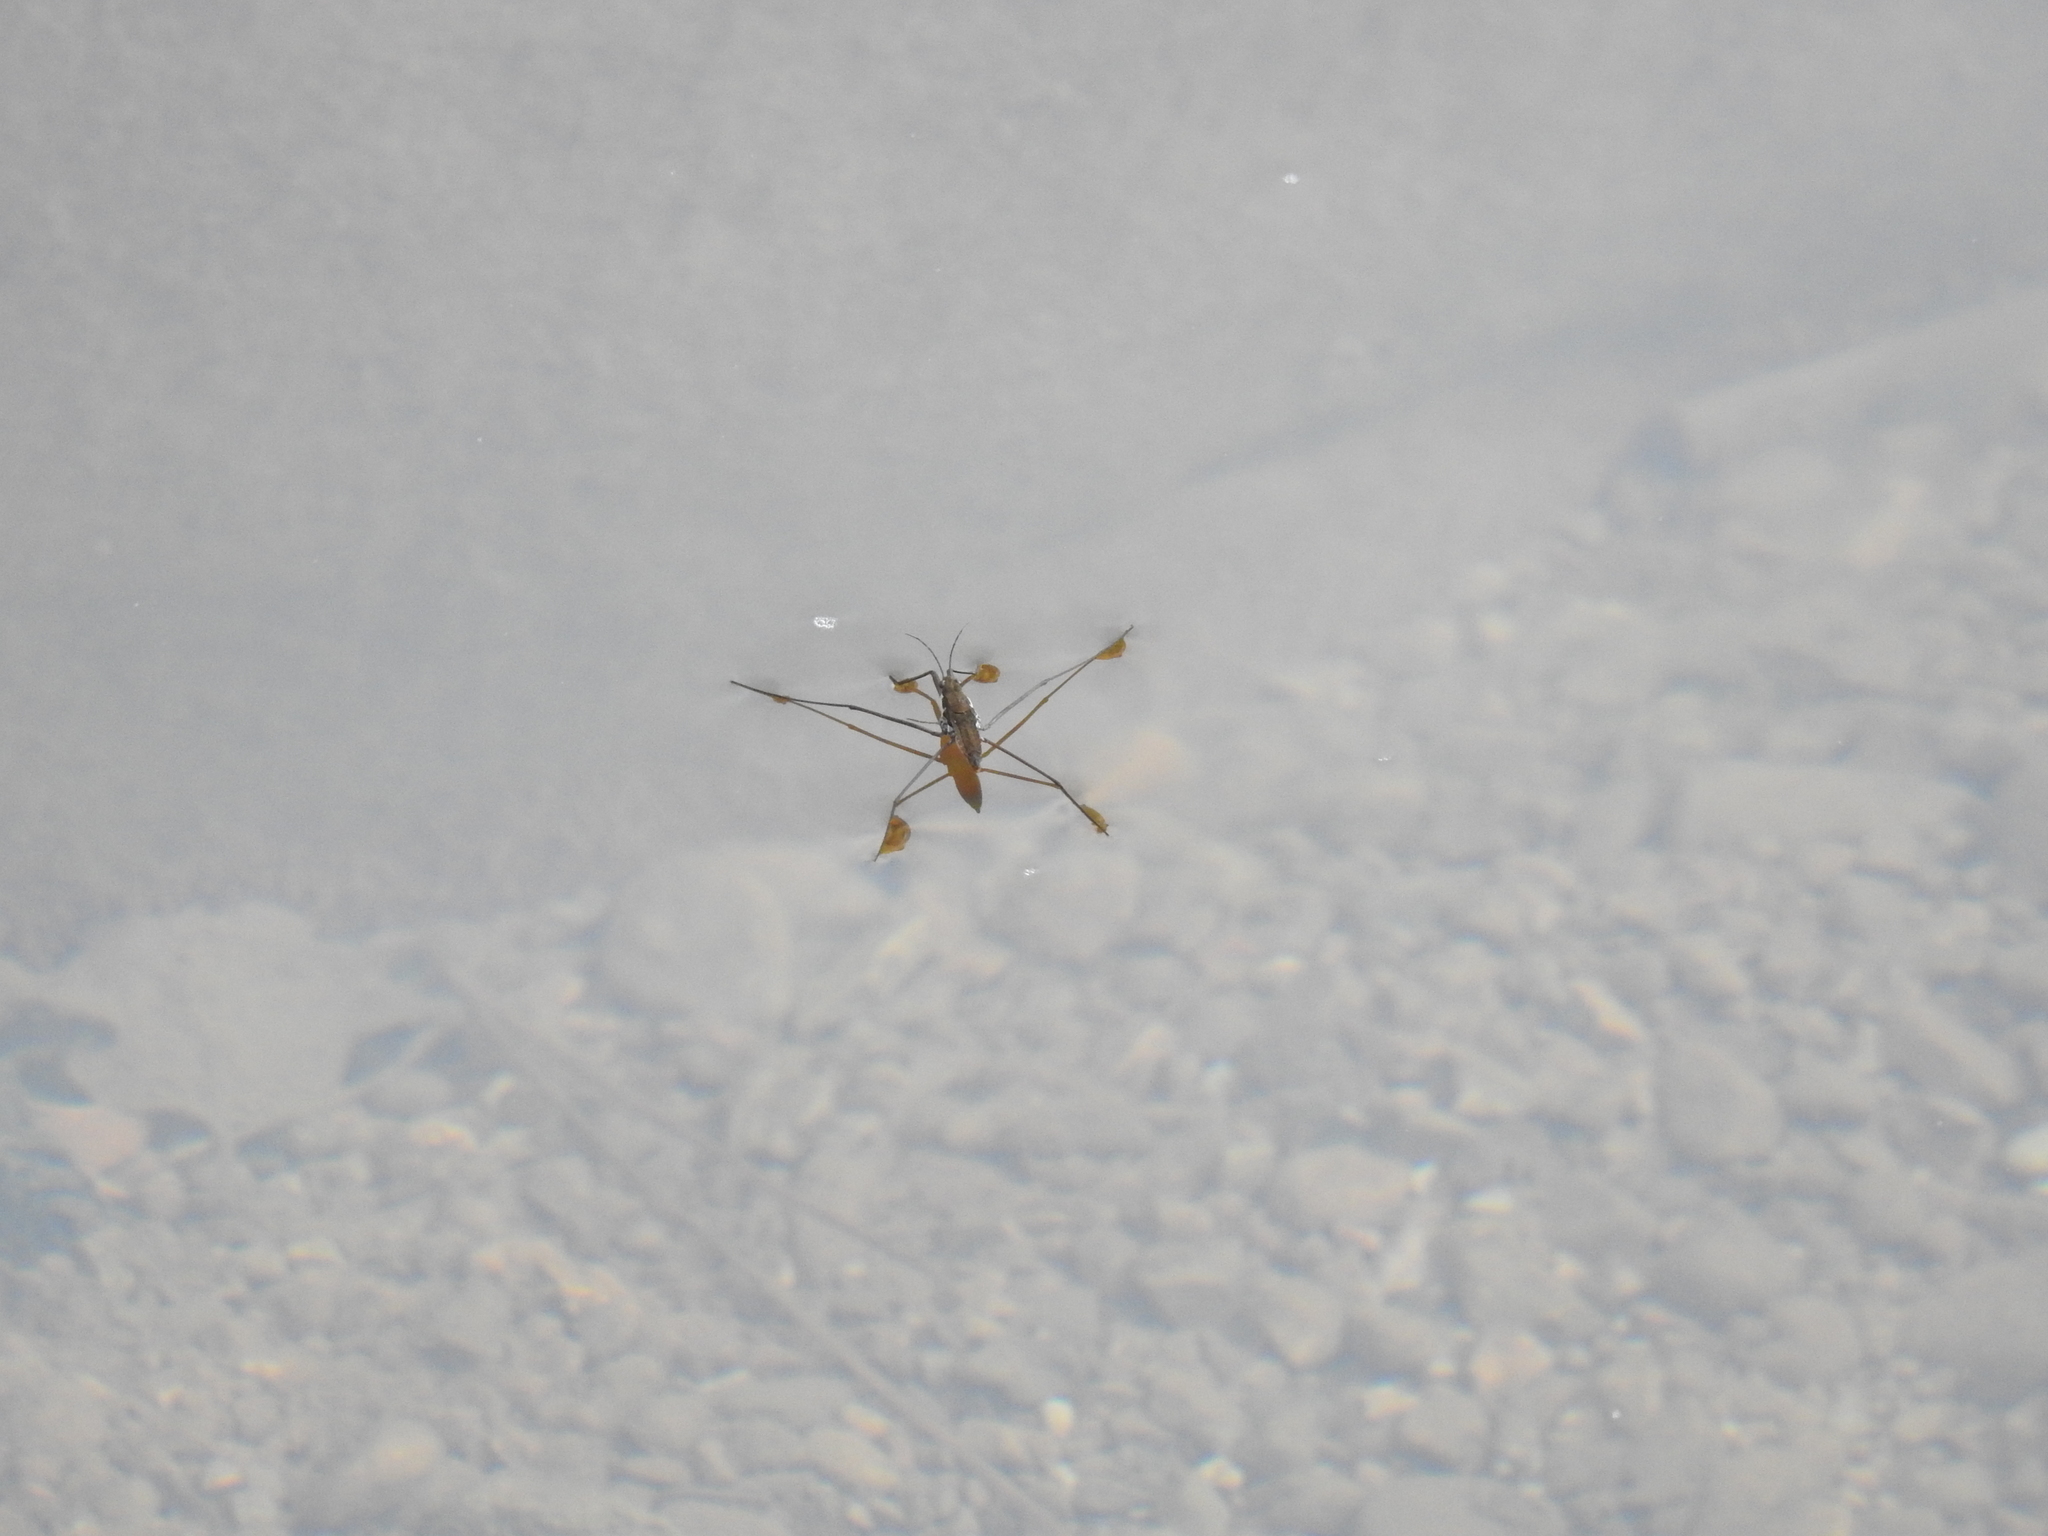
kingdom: Animalia
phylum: Arthropoda
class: Insecta
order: Hemiptera
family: Gerridae
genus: Aquarius
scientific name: Aquarius remigis
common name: Common water strider
